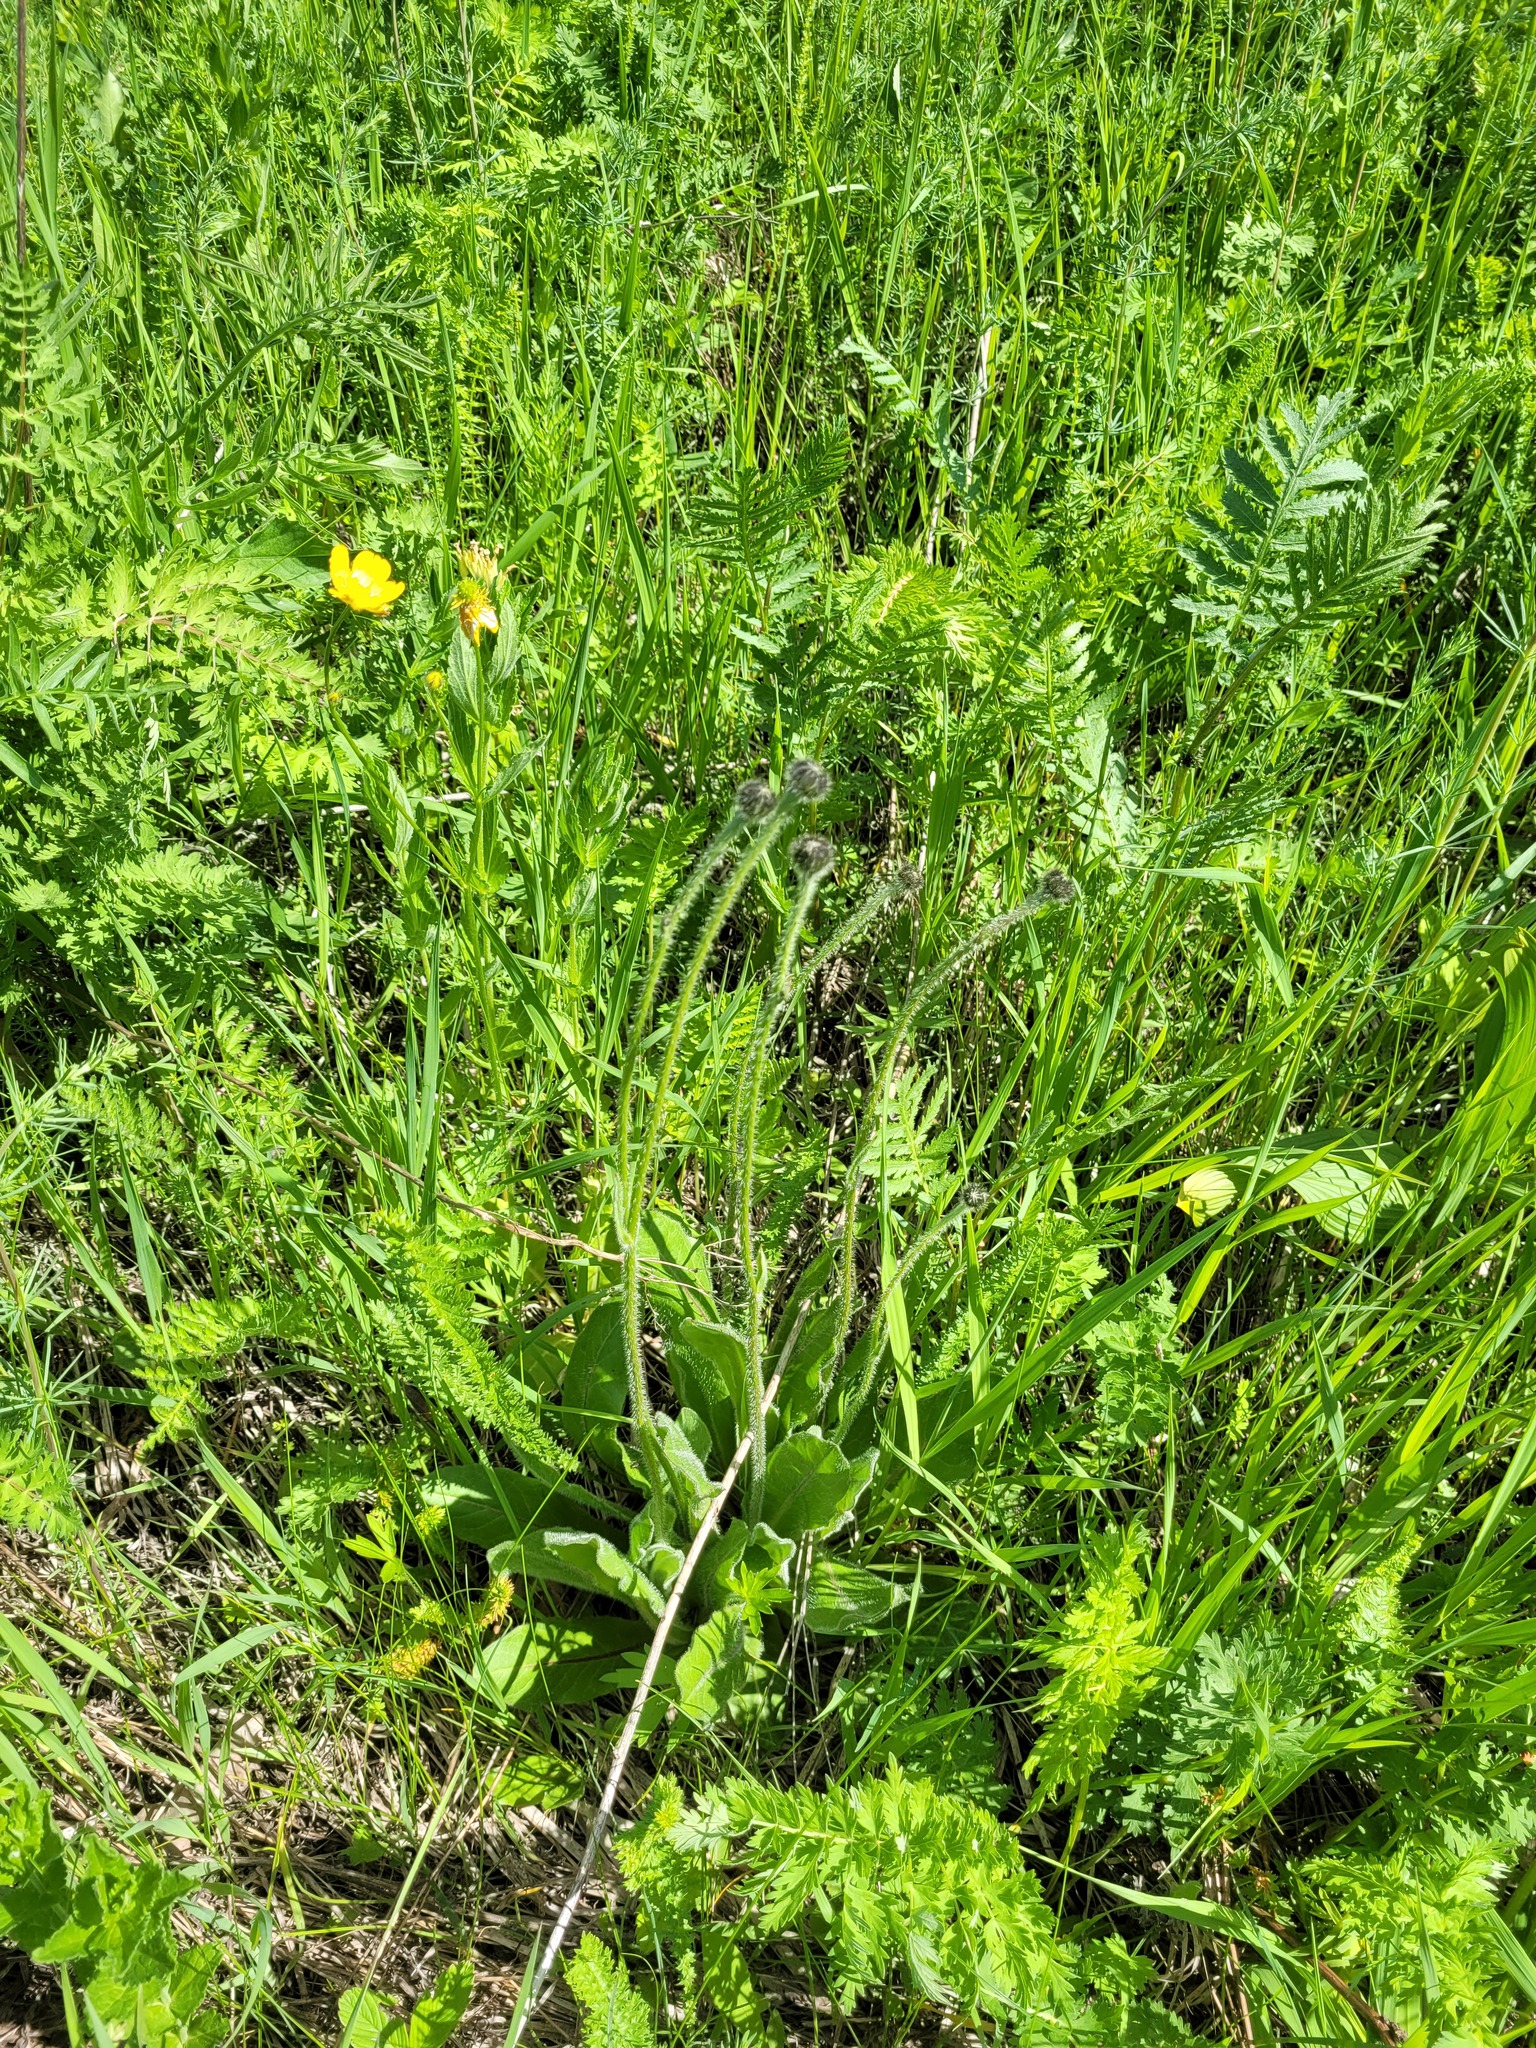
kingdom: Plantae
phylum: Tracheophyta
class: Magnoliopsida
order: Asterales
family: Asteraceae
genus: Trommsdorffia
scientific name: Trommsdorffia maculata
